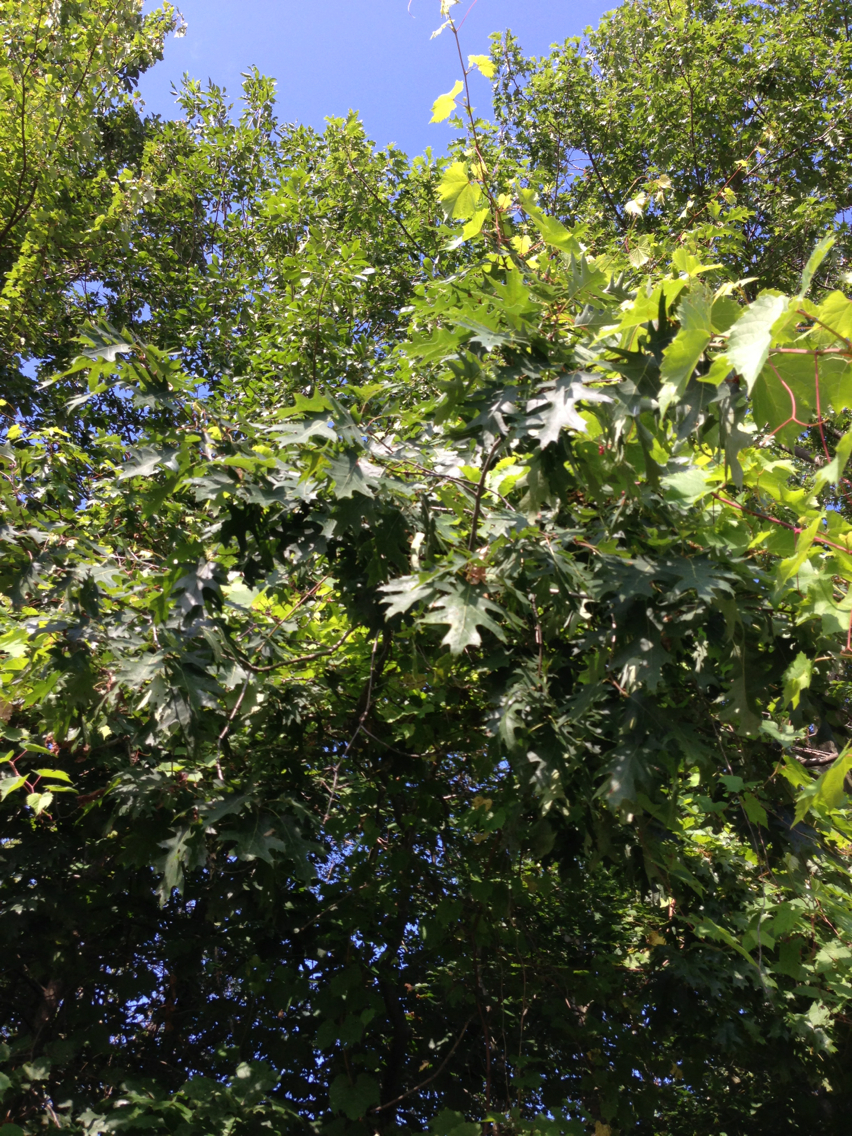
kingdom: Plantae
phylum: Tracheophyta
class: Magnoliopsida
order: Fagales
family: Fagaceae
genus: Quercus
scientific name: Quercus rubra
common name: Red oak
